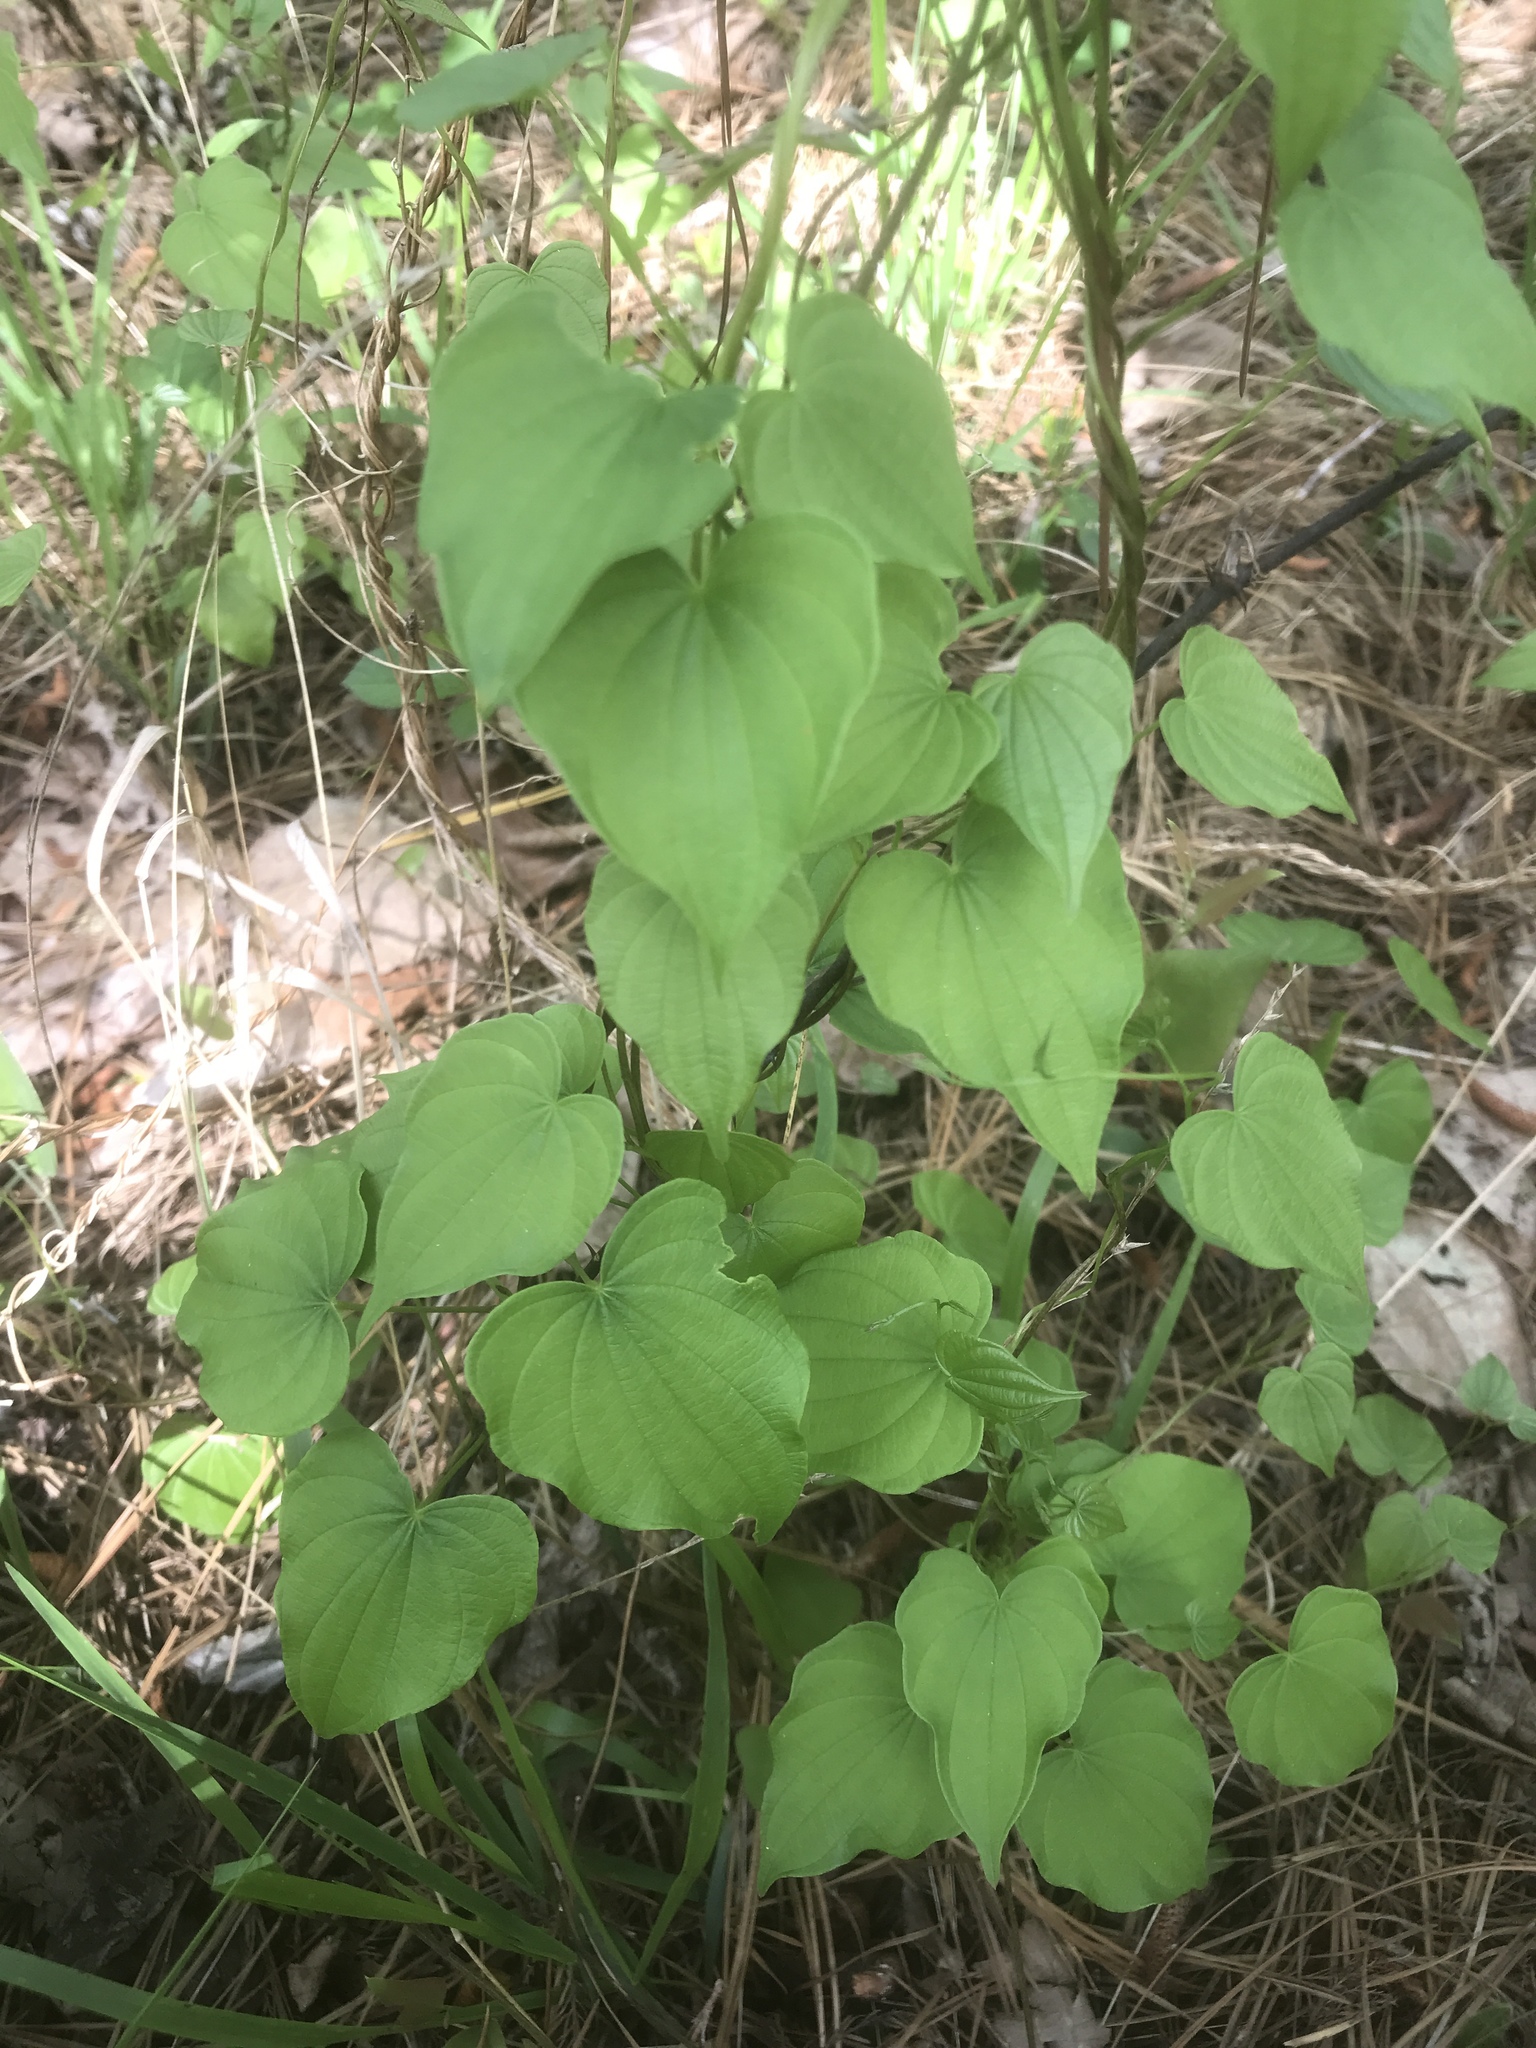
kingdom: Plantae
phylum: Tracheophyta
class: Liliopsida
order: Dioscoreales
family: Dioscoreaceae
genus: Dioscorea
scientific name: Dioscorea villosa
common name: Wild yam
